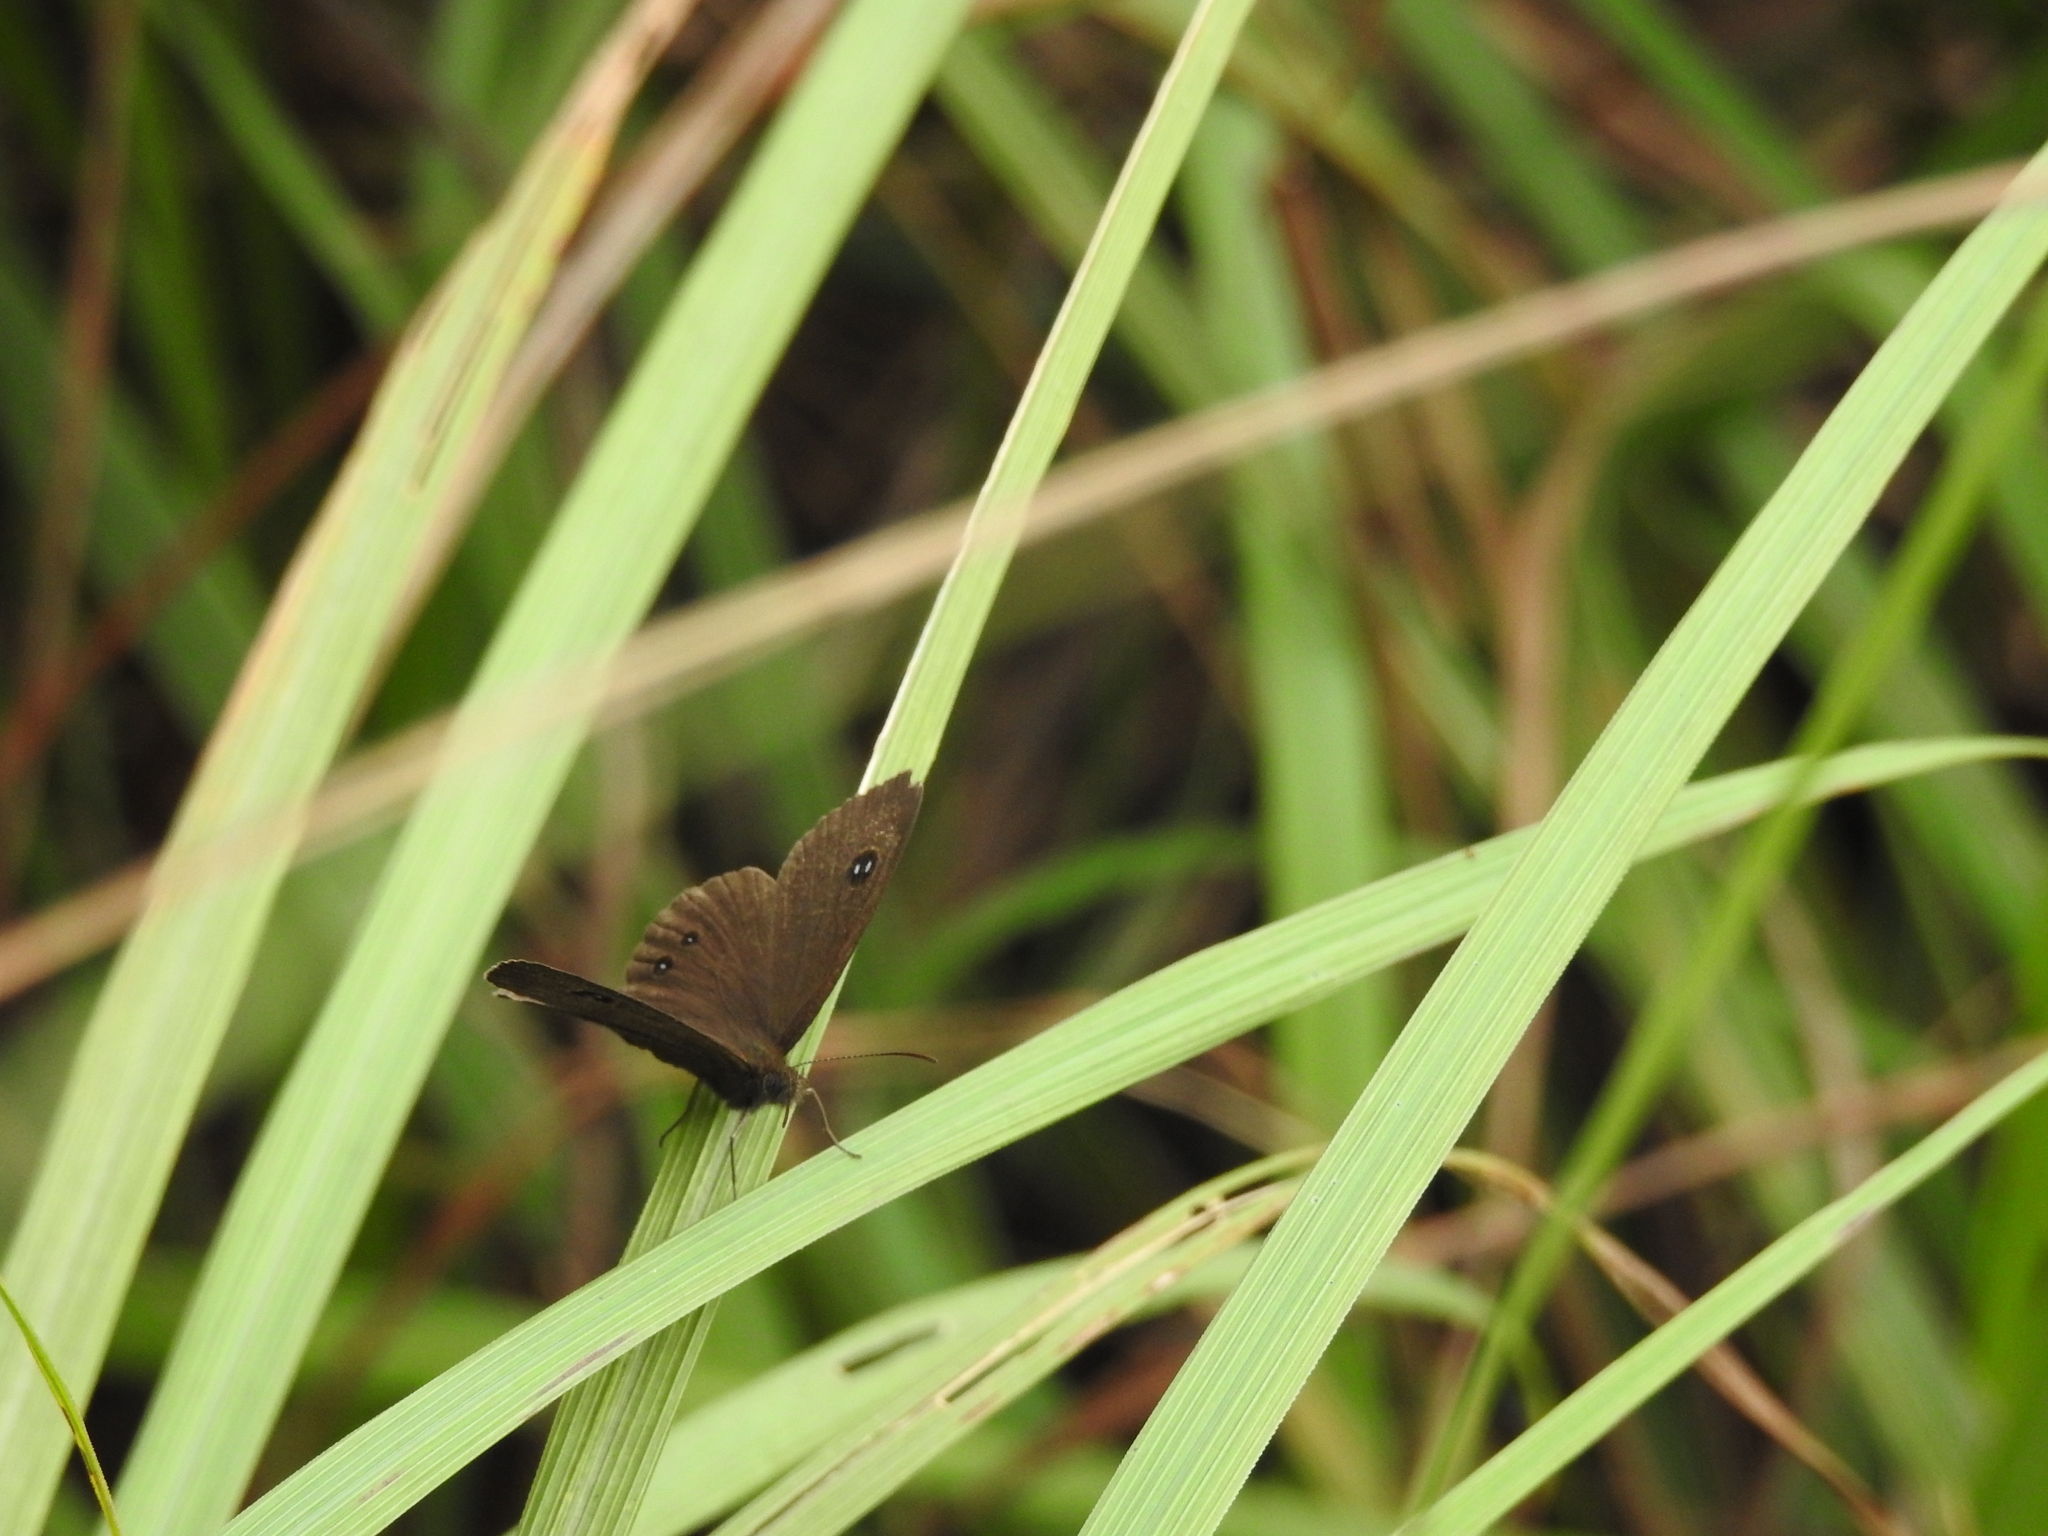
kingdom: Animalia
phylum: Arthropoda
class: Insecta
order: Lepidoptera
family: Nymphalidae
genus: Ypthima
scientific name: Ypthima ypthimoides
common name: Palni four-ring
